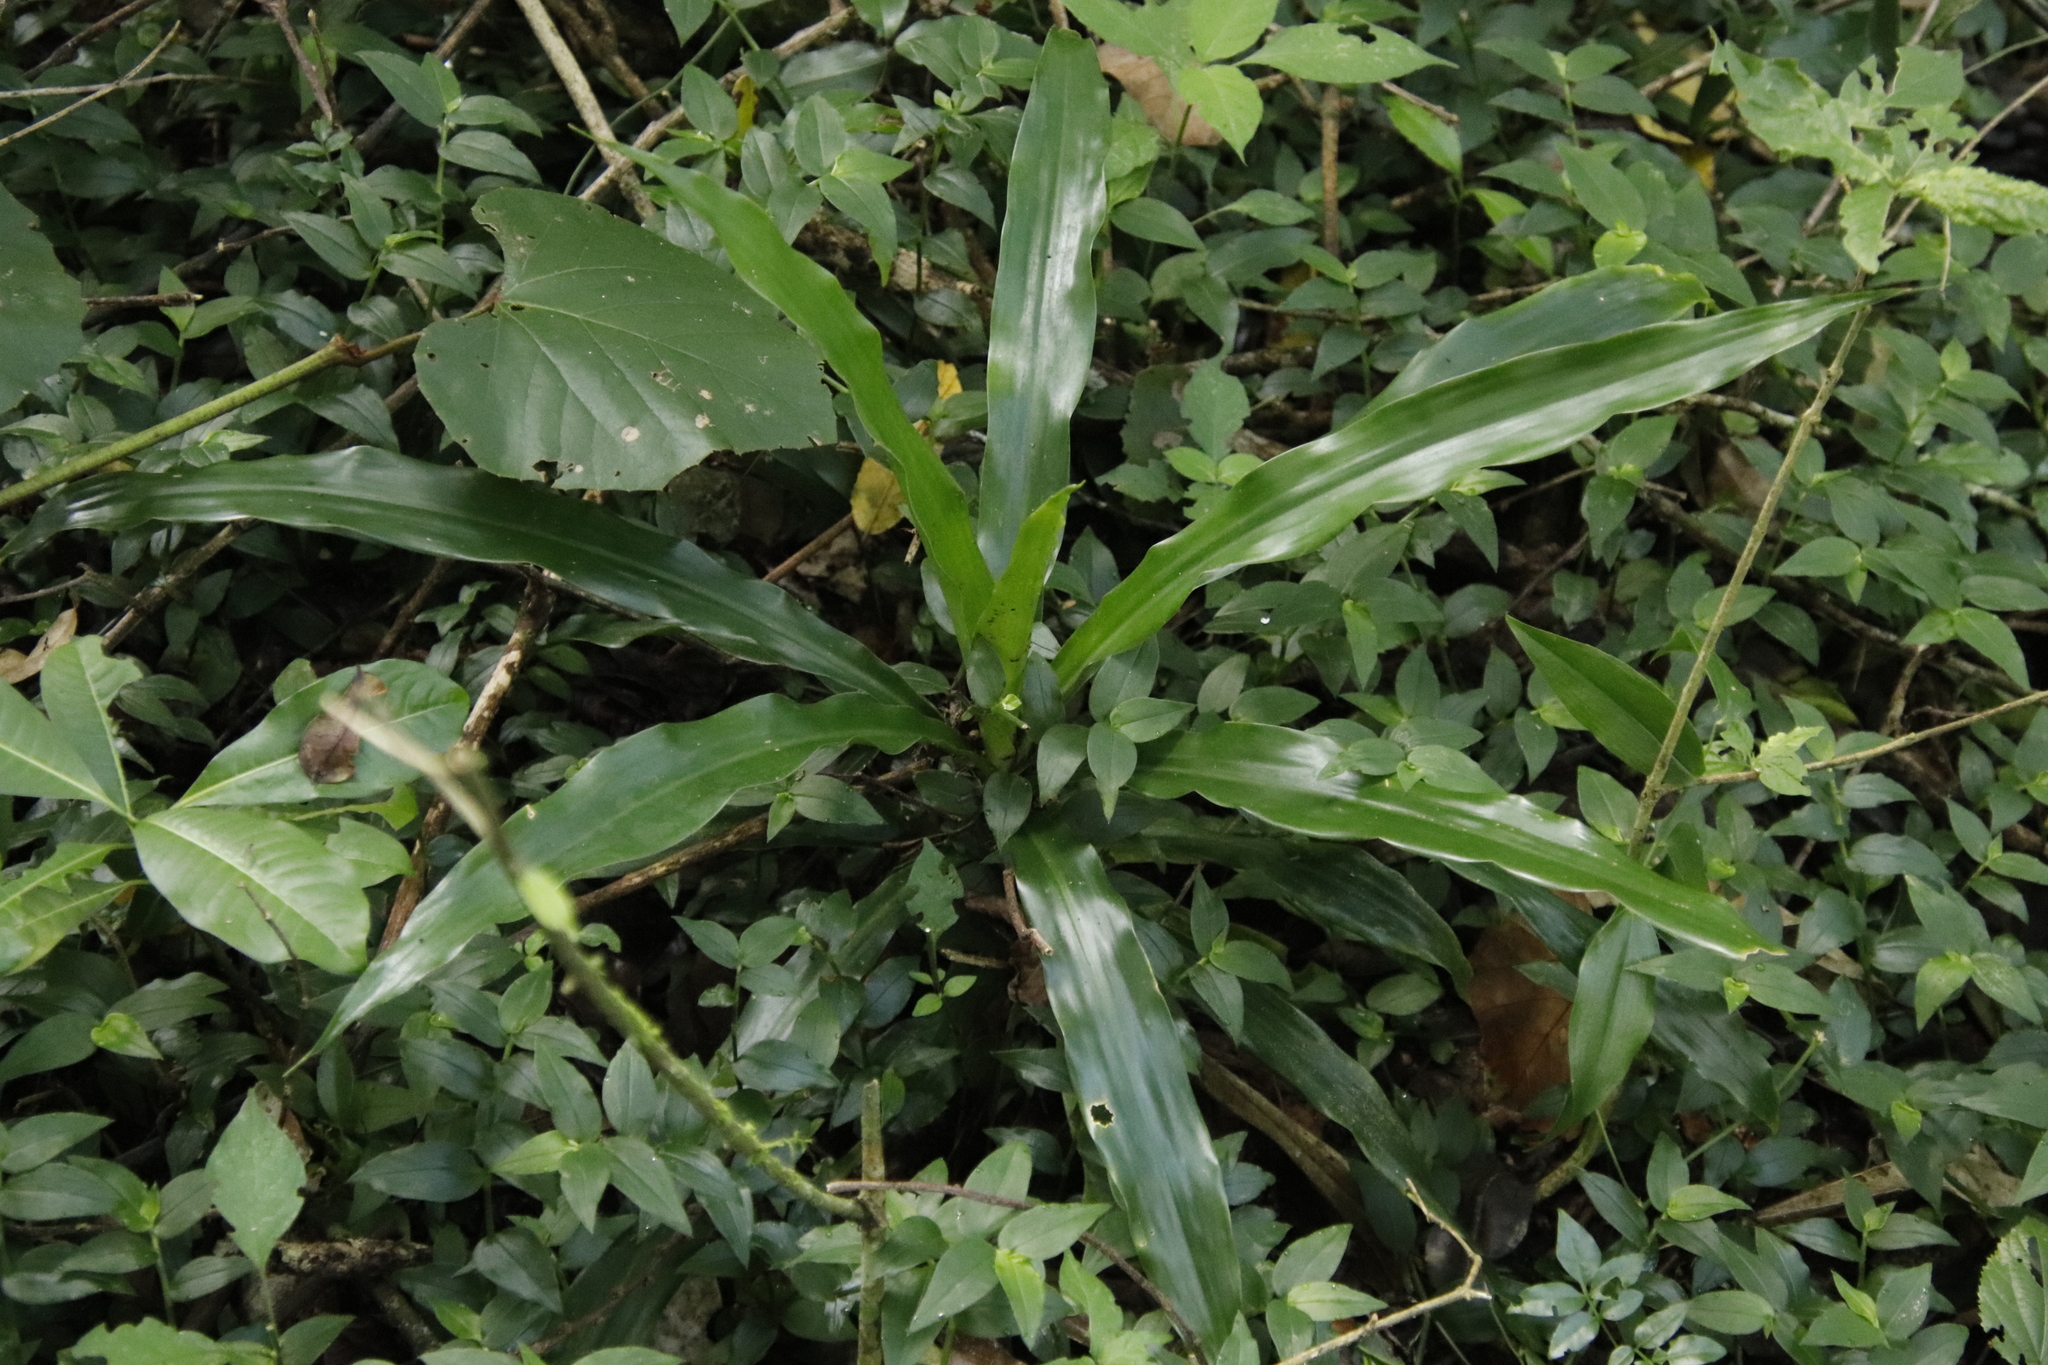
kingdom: Plantae
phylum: Tracheophyta
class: Liliopsida
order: Asparagales
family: Asparagaceae
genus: Dracaena
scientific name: Dracaena fragrans
